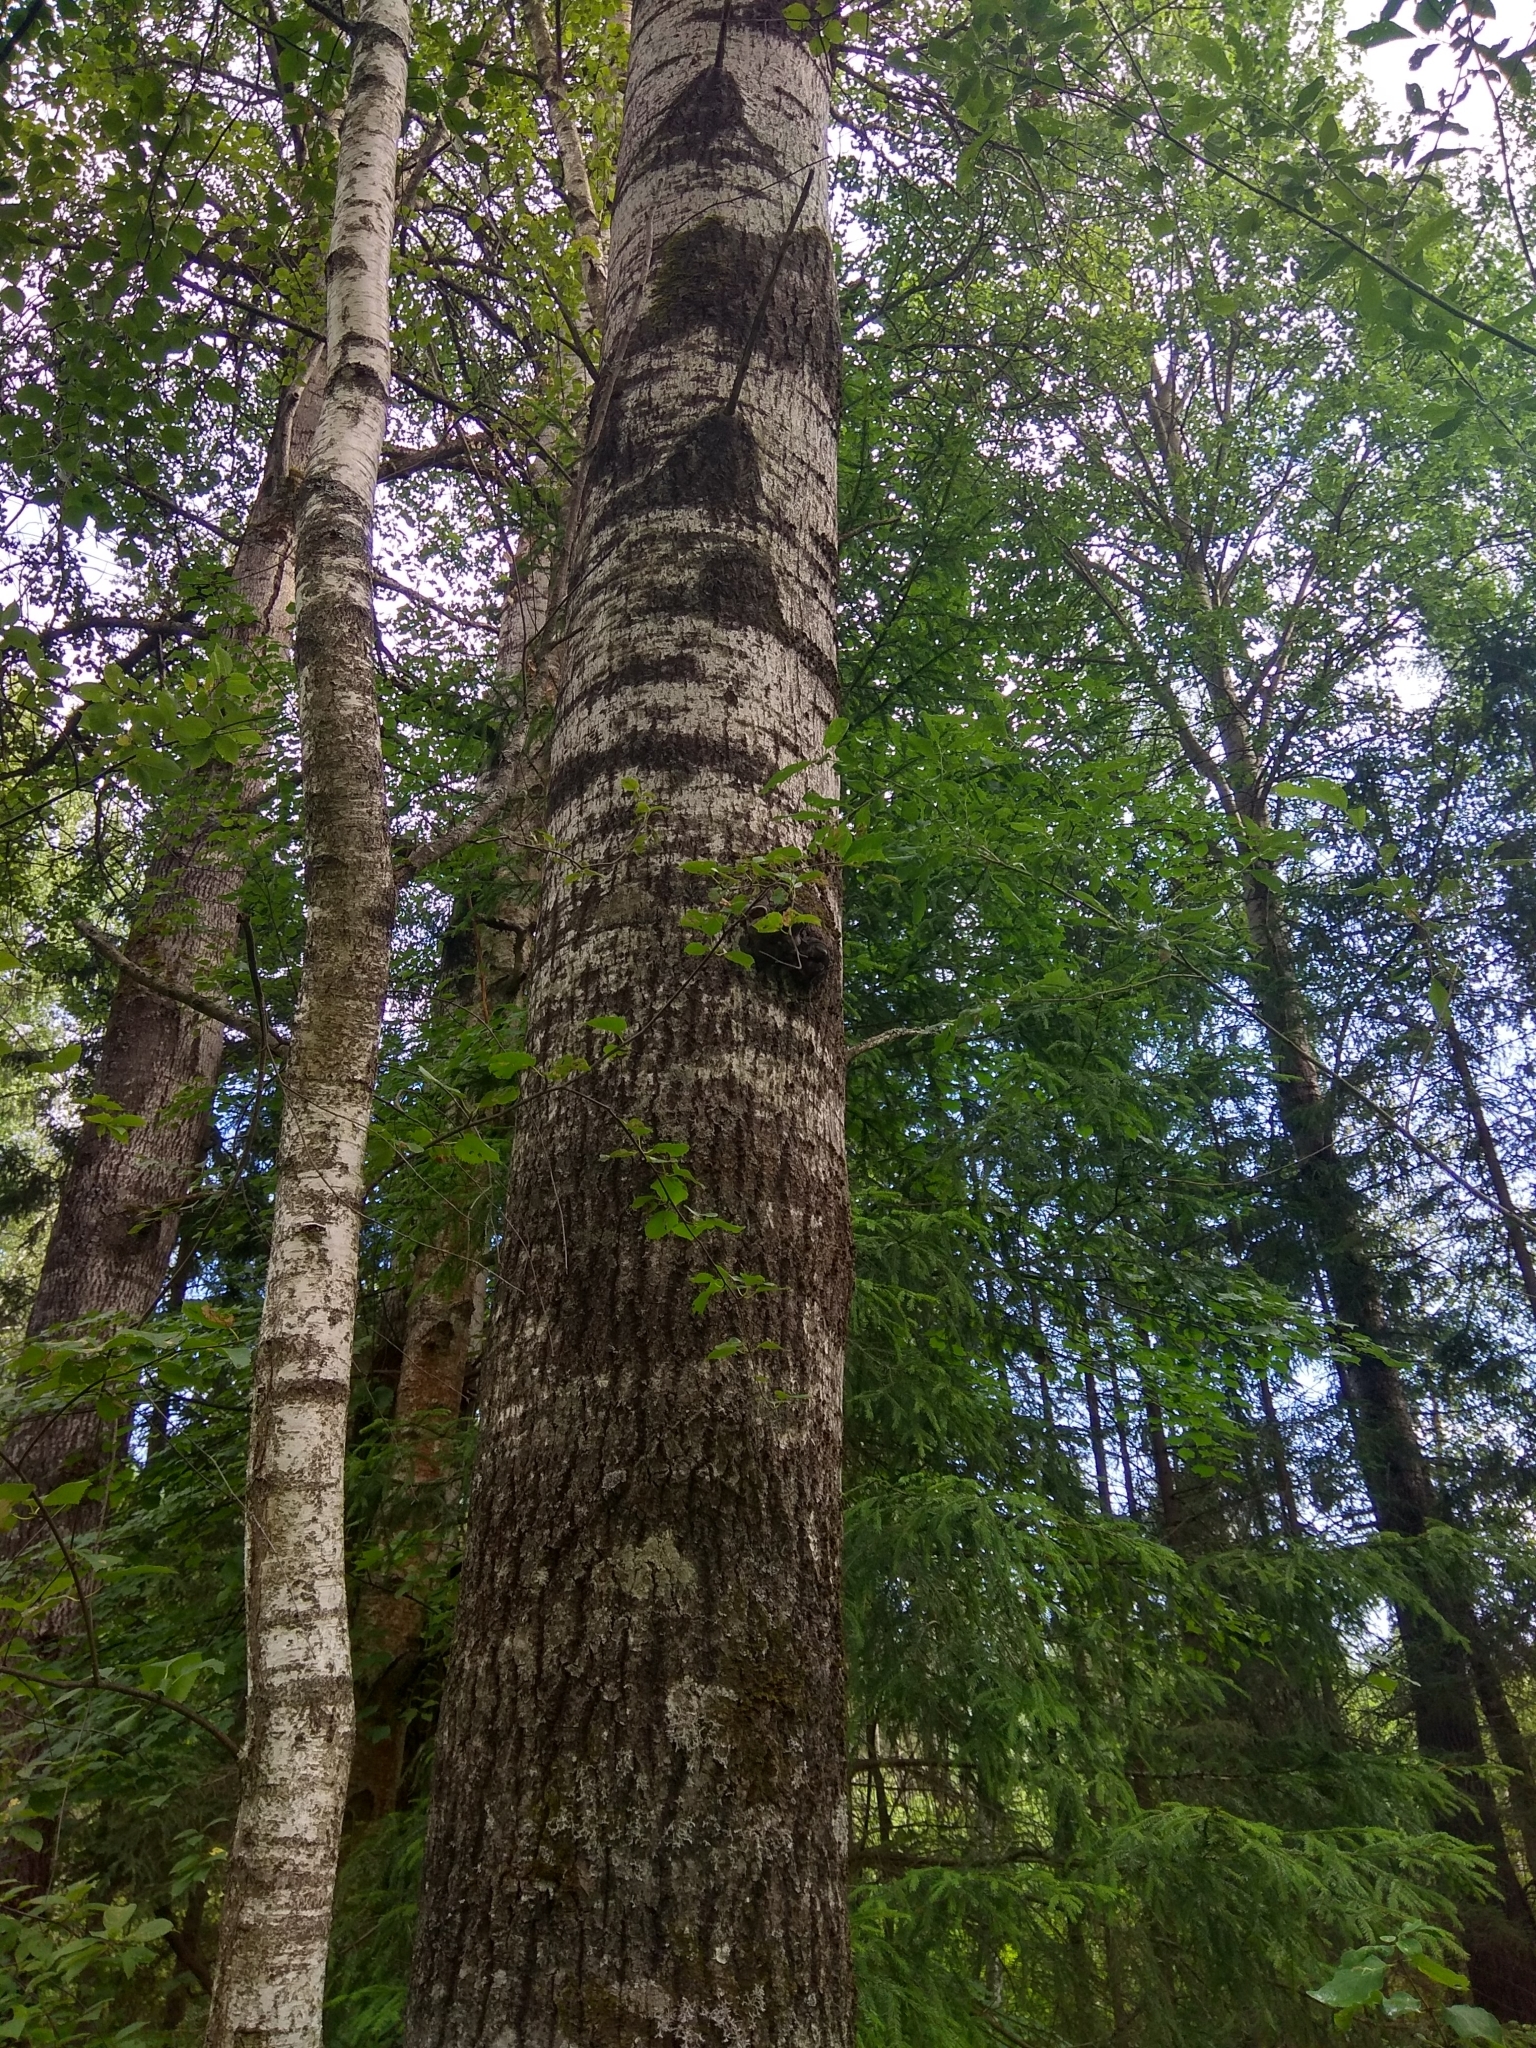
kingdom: Plantae
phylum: Tracheophyta
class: Magnoliopsida
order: Malpighiales
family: Salicaceae
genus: Populus
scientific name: Populus tremula
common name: European aspen
